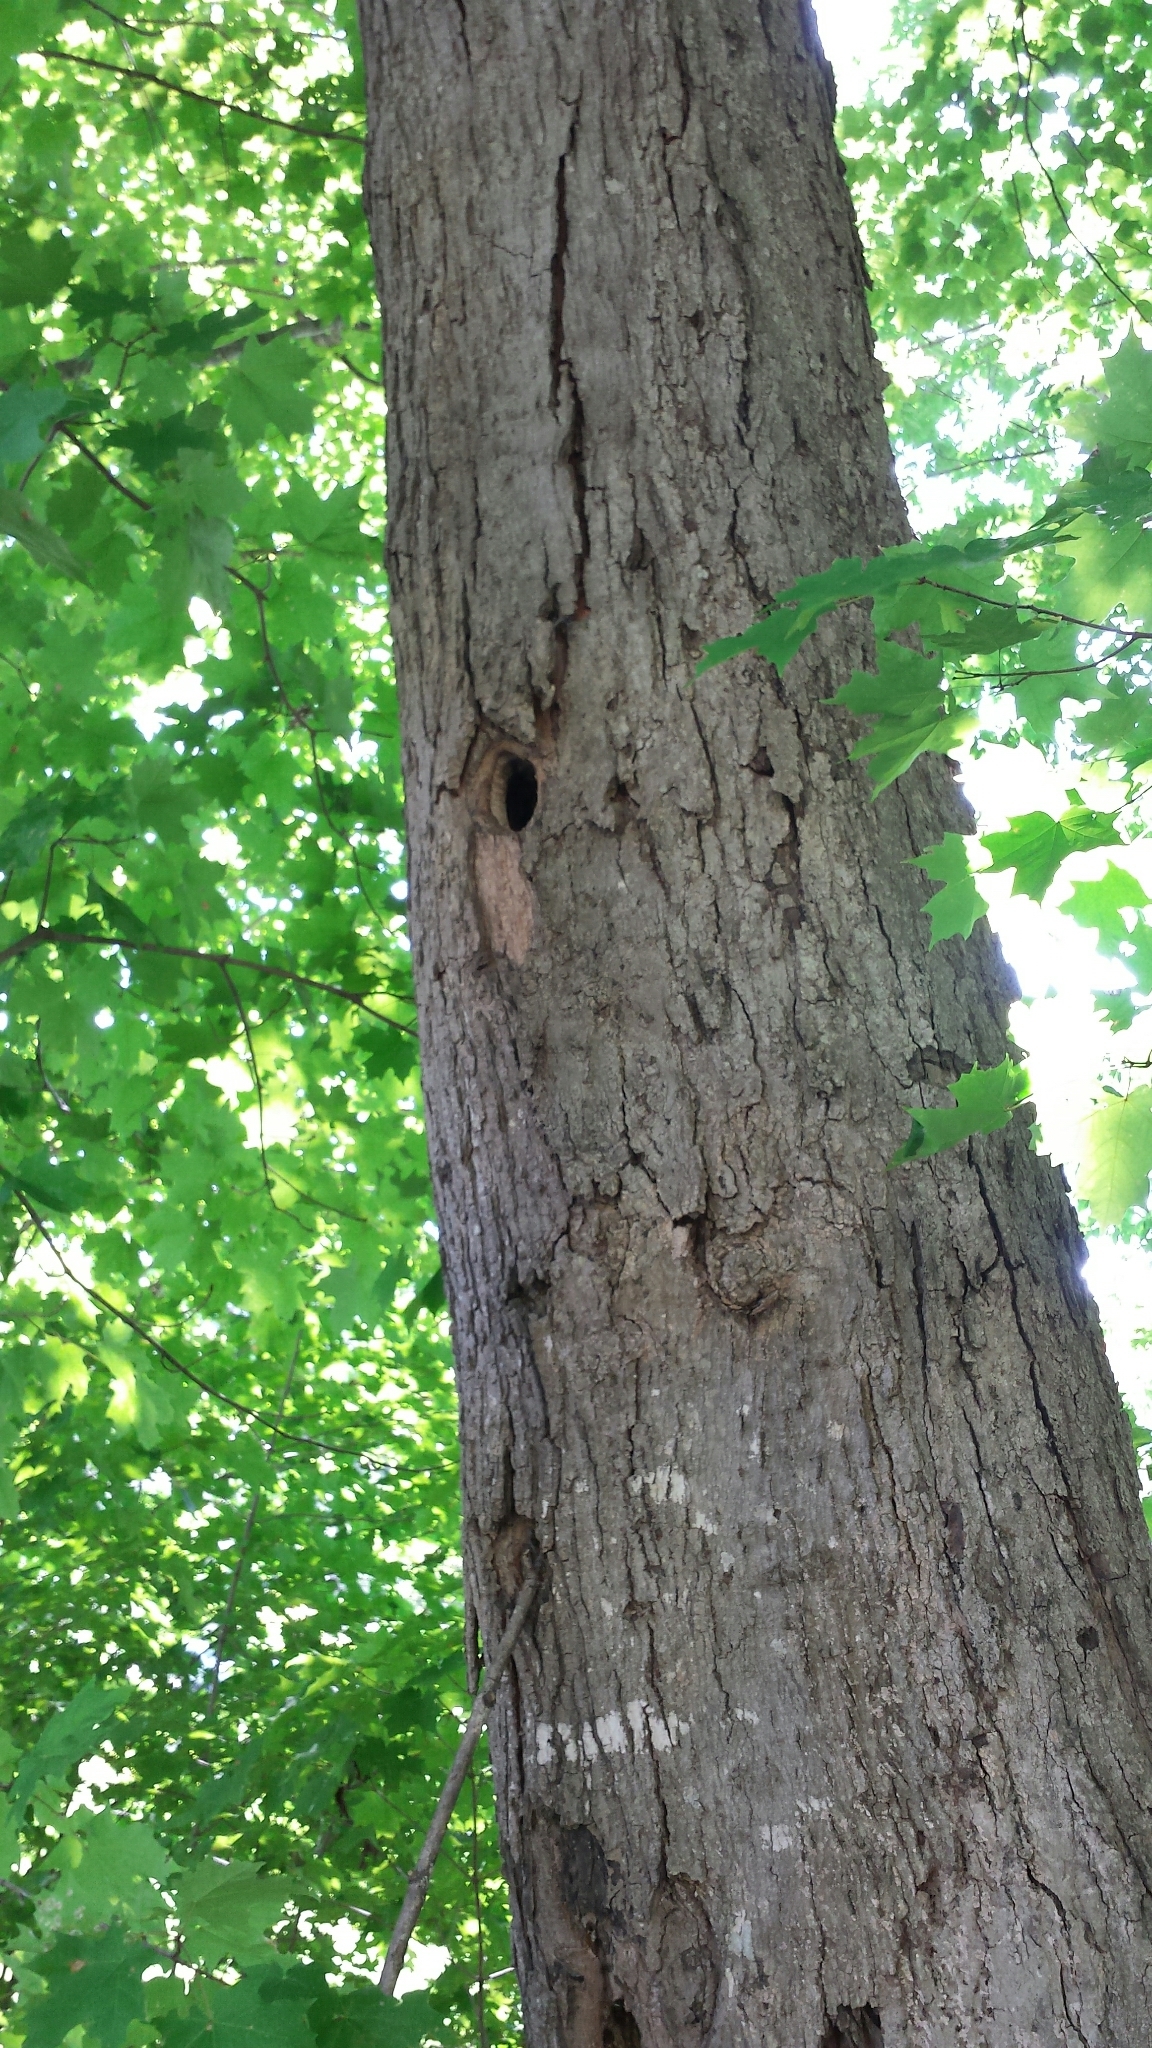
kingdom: Plantae
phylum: Tracheophyta
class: Magnoliopsida
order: Sapindales
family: Sapindaceae
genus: Acer
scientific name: Acer saccharum
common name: Sugar maple
